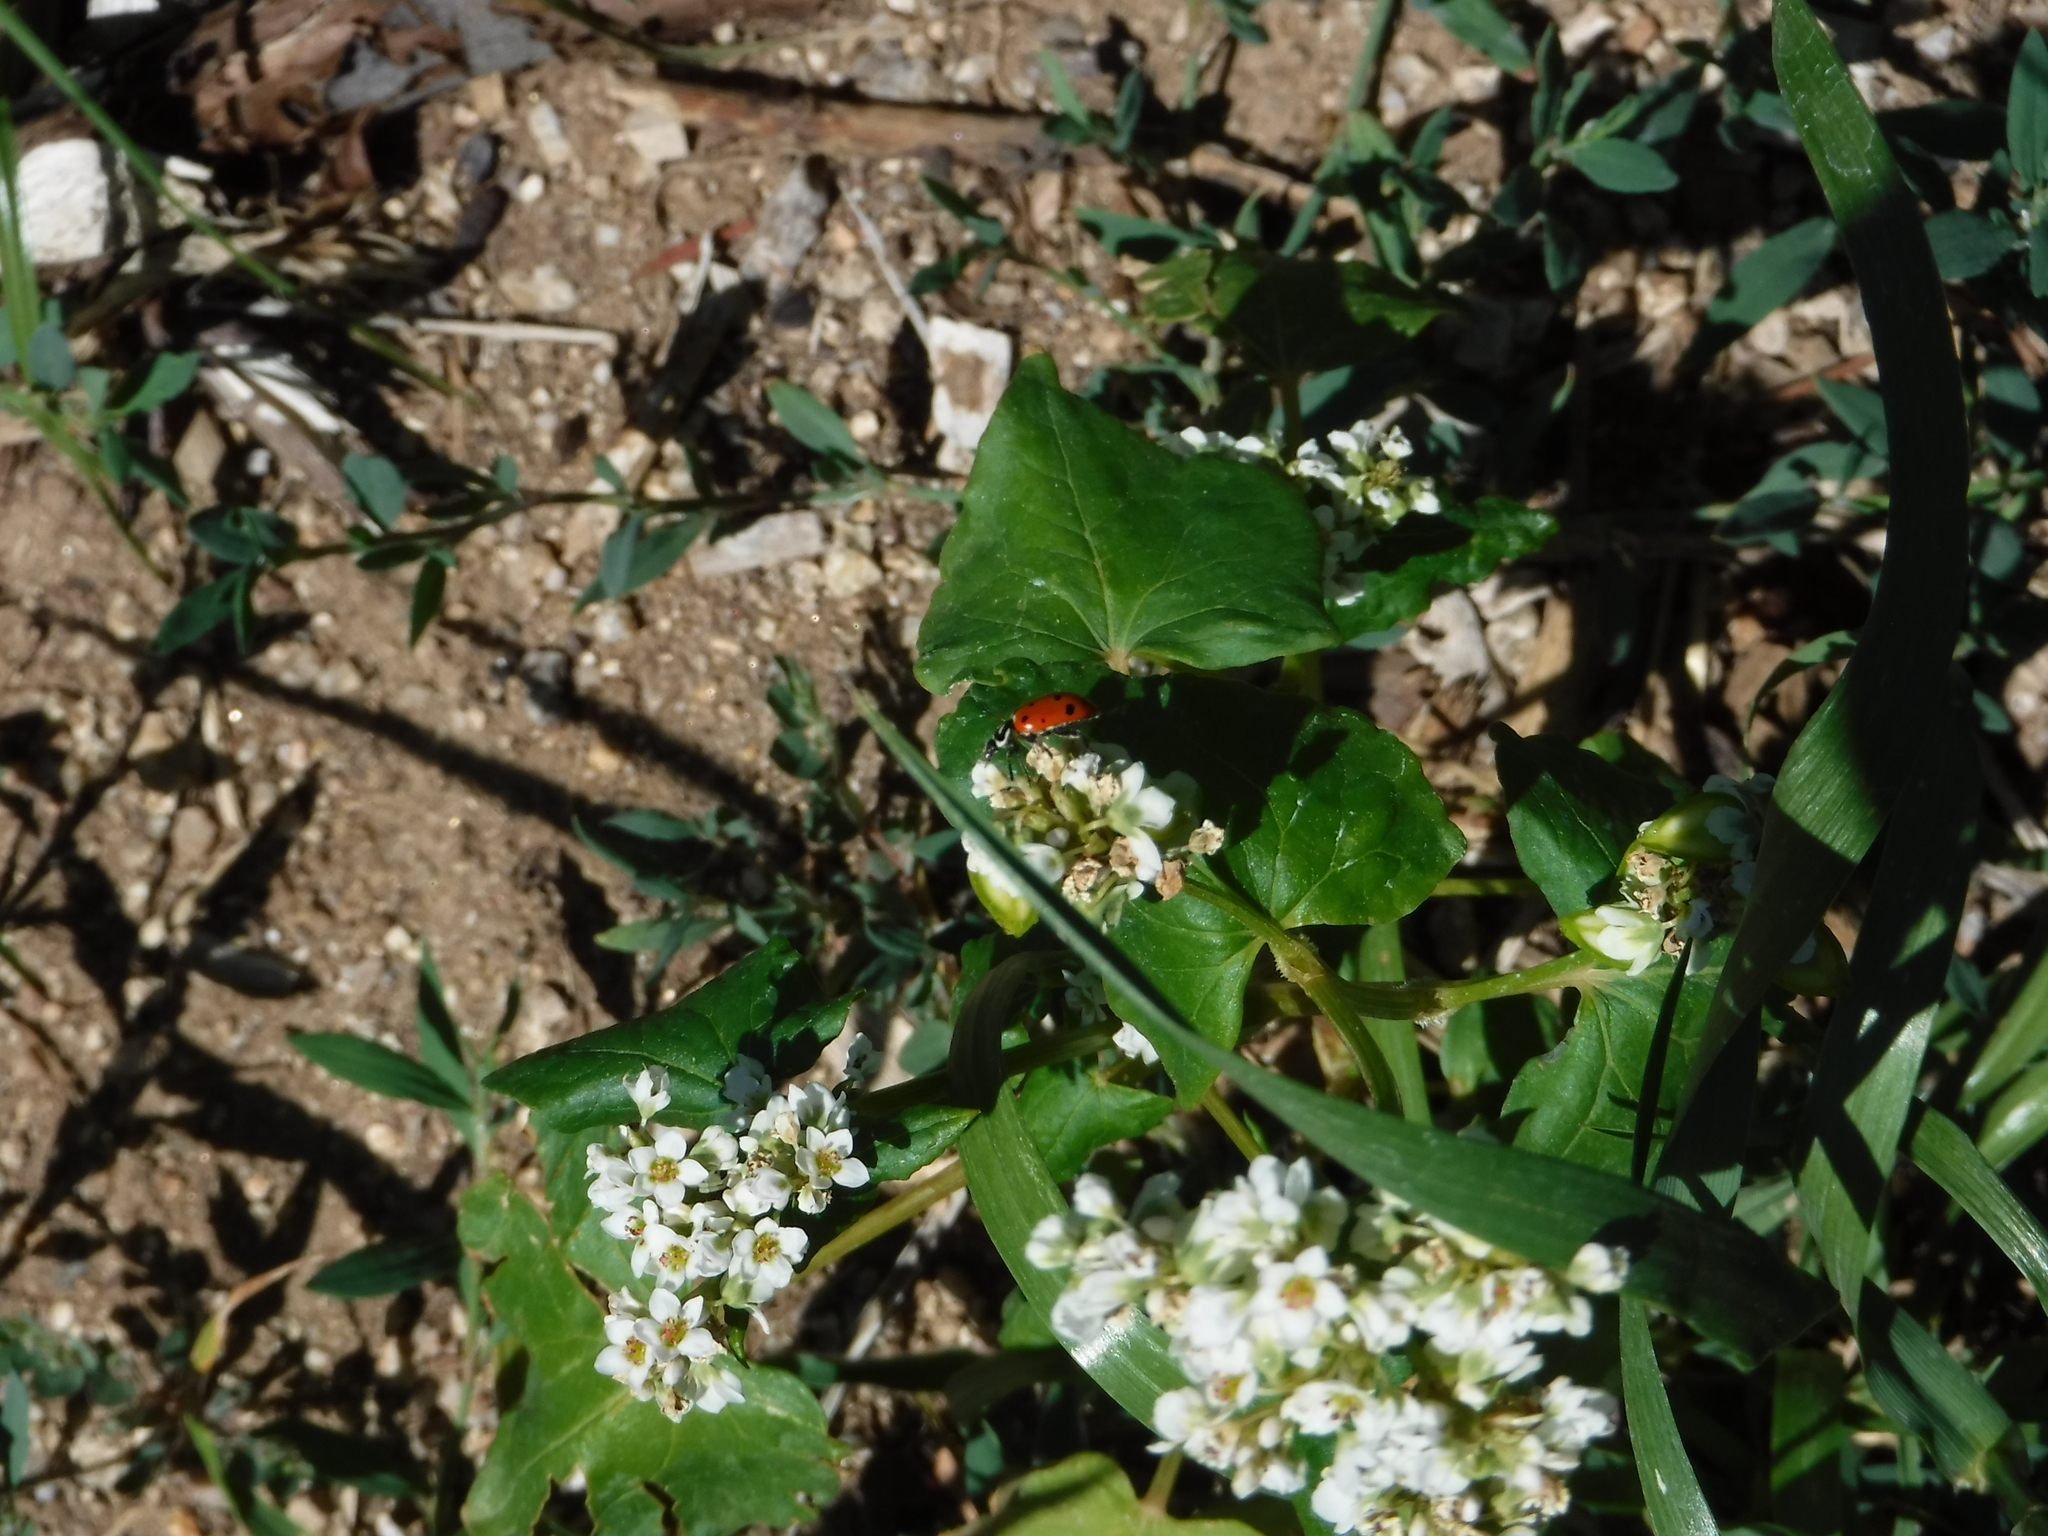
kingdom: Animalia
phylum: Arthropoda
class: Insecta
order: Coleoptera
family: Coccinellidae
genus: Hippodamia
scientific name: Hippodamia convergens
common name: Convergent lady beetle
